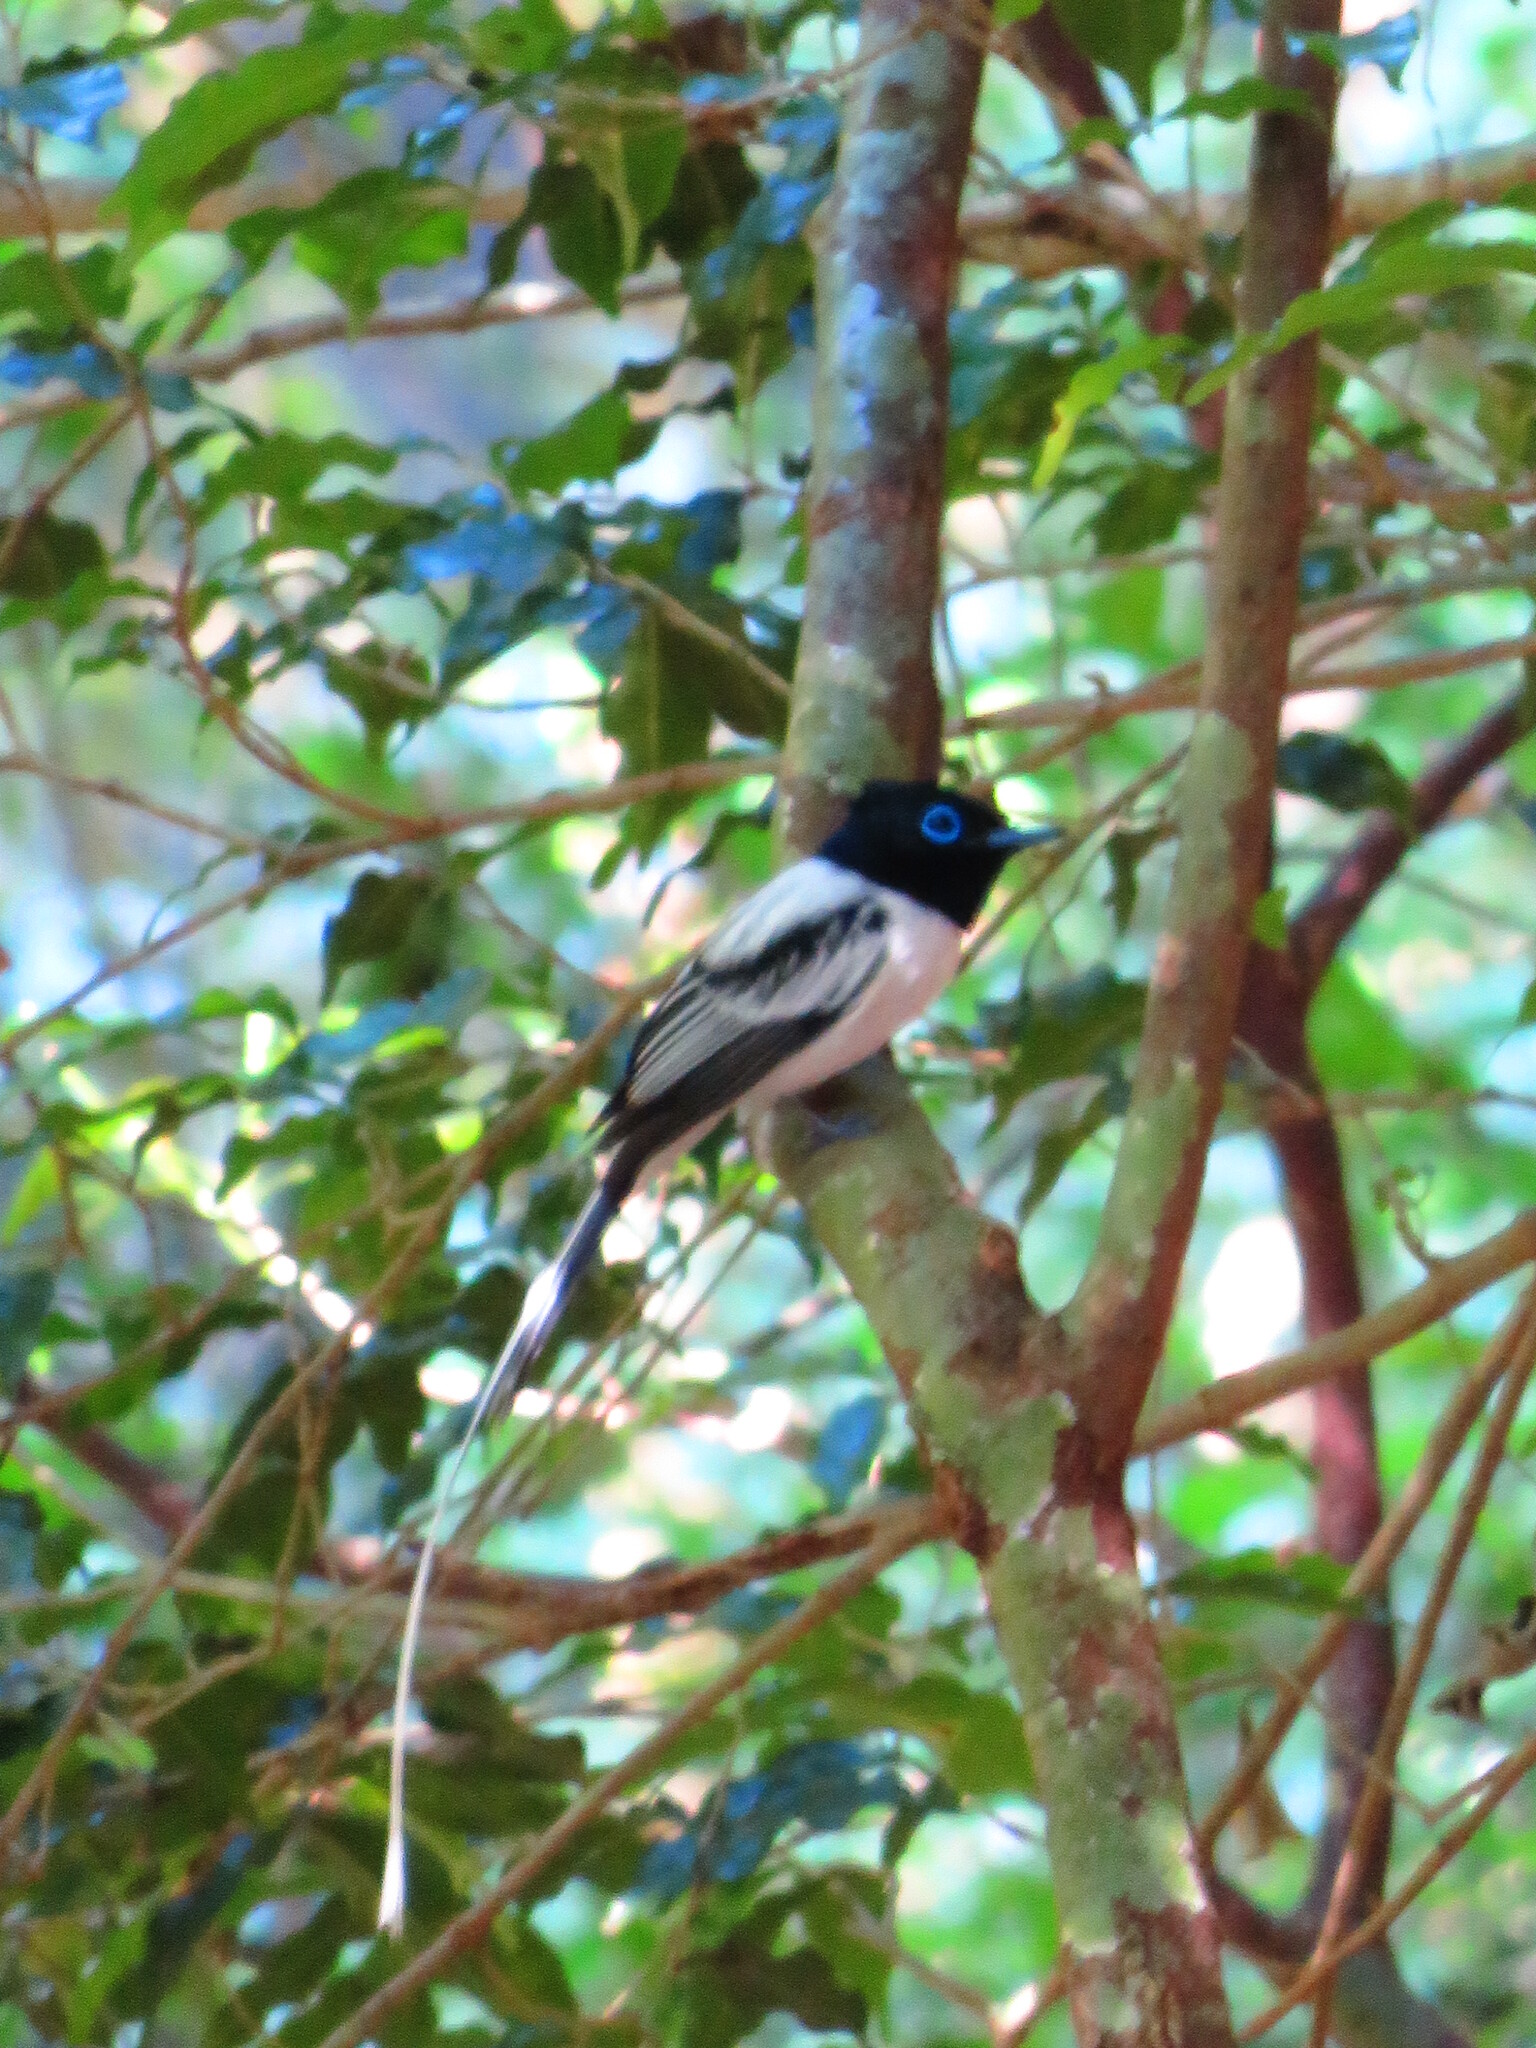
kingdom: Animalia
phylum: Chordata
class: Aves
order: Passeriformes
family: Monarchidae
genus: Terpsiphone
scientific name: Terpsiphone mutata
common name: Malagasy paradise flycatcher
